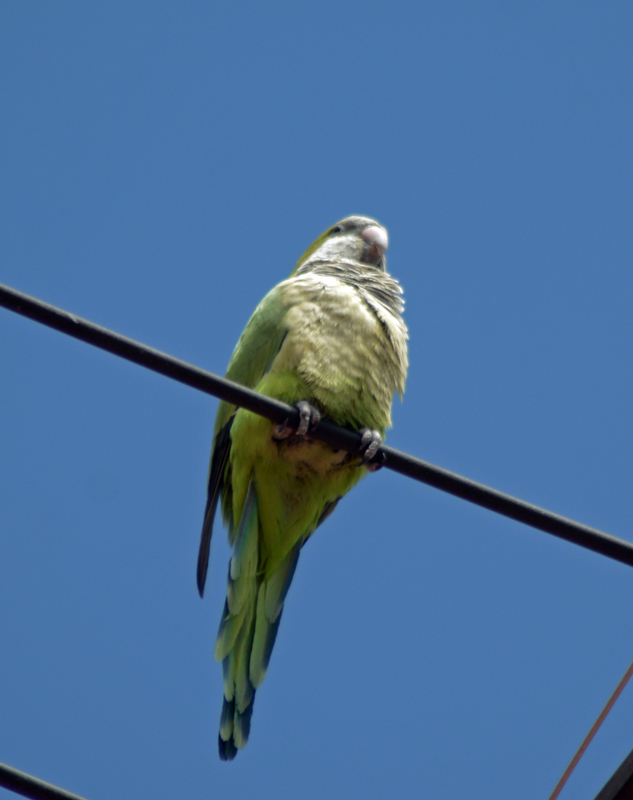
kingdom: Animalia
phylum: Chordata
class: Aves
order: Psittaciformes
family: Psittacidae
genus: Myiopsitta
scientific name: Myiopsitta monachus
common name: Monk parakeet
